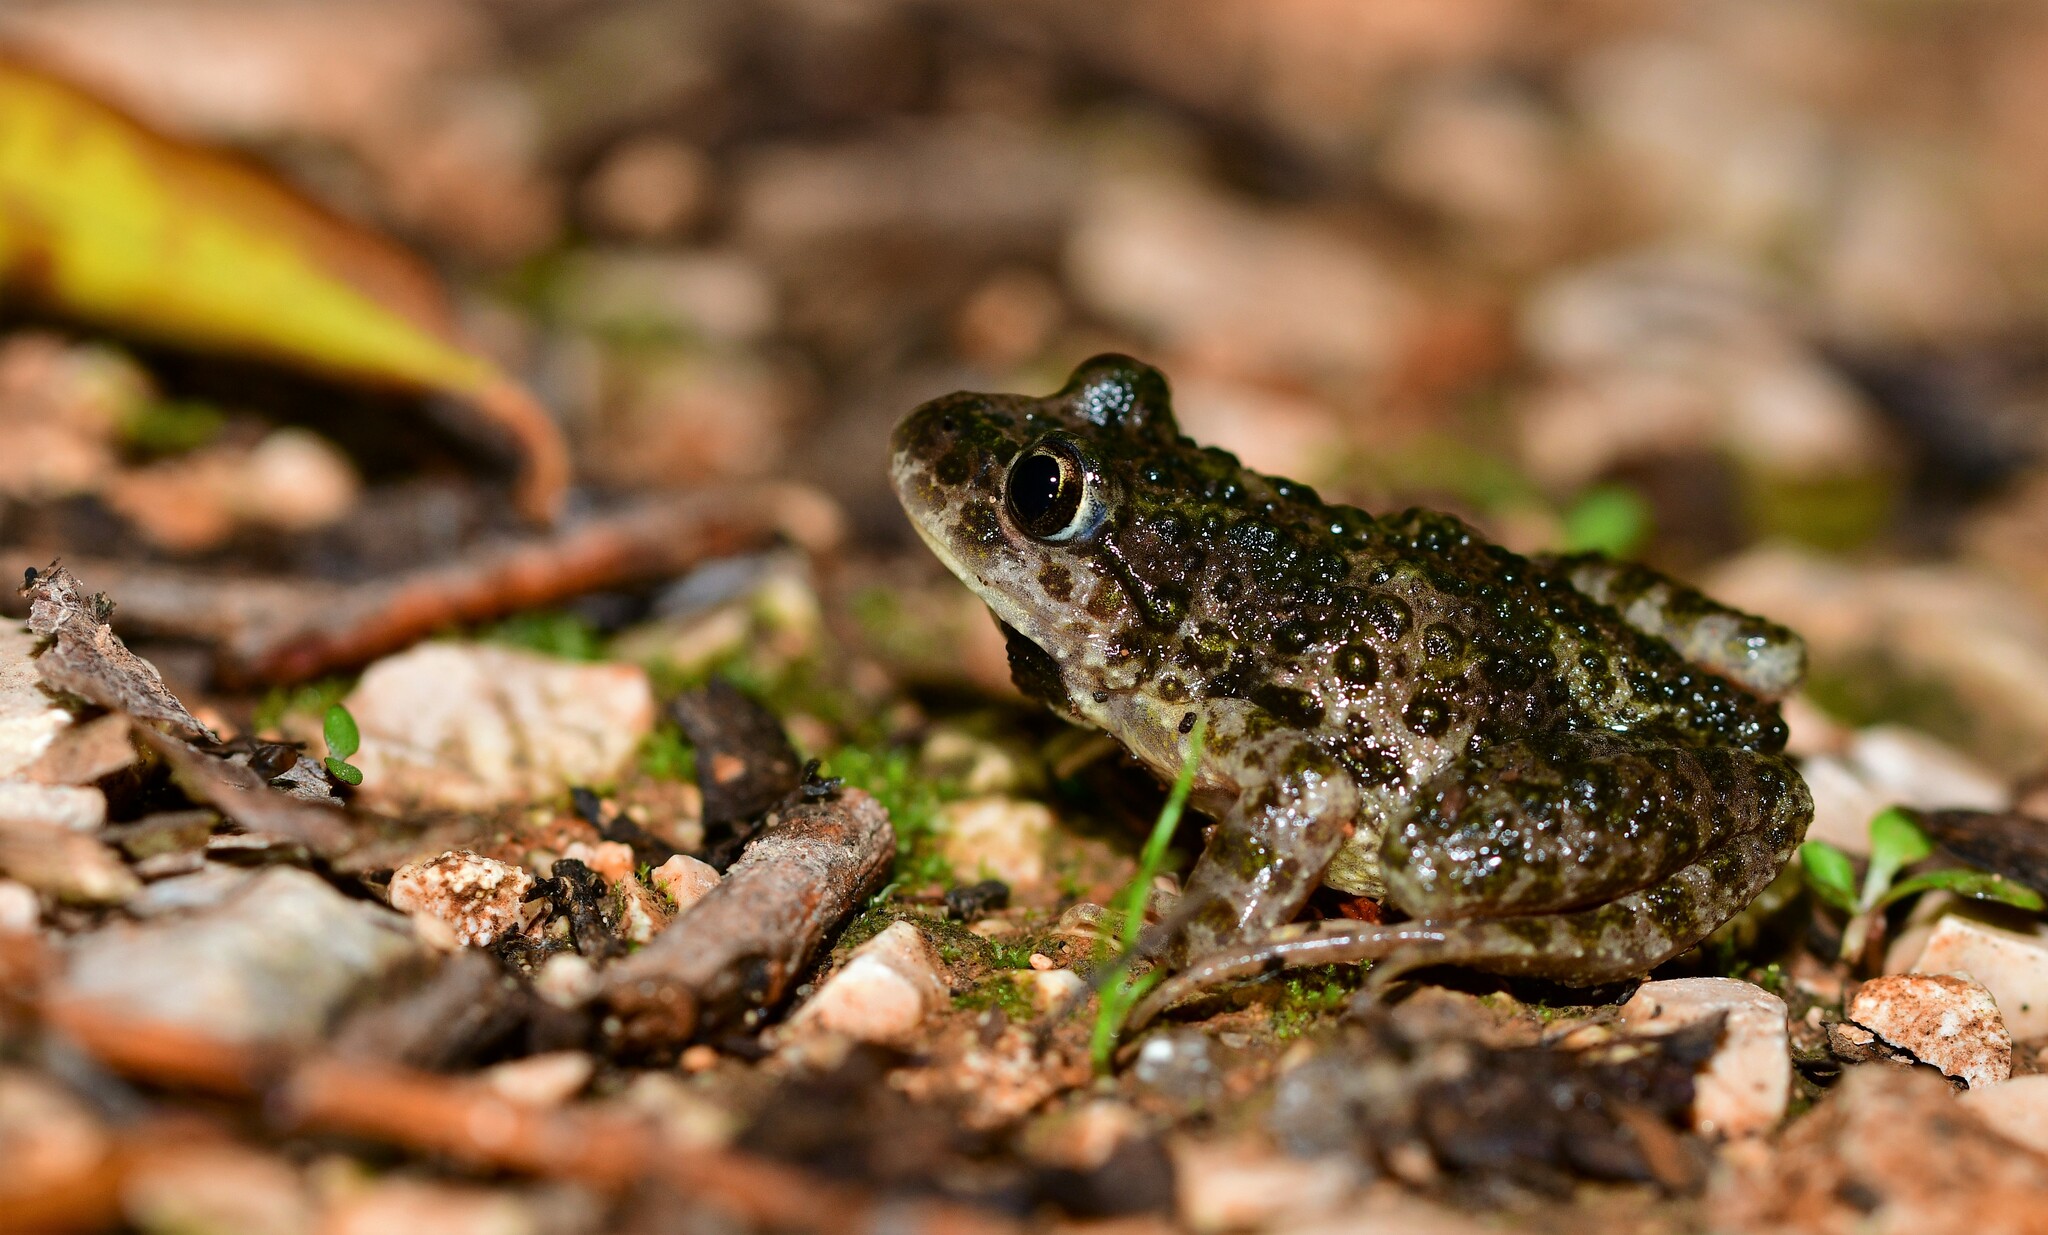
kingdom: Animalia
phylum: Chordata
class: Amphibia
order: Anura
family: Pelodytidae
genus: Pelodytes
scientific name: Pelodytes atlanticus
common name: Lusitanian parsley frog
